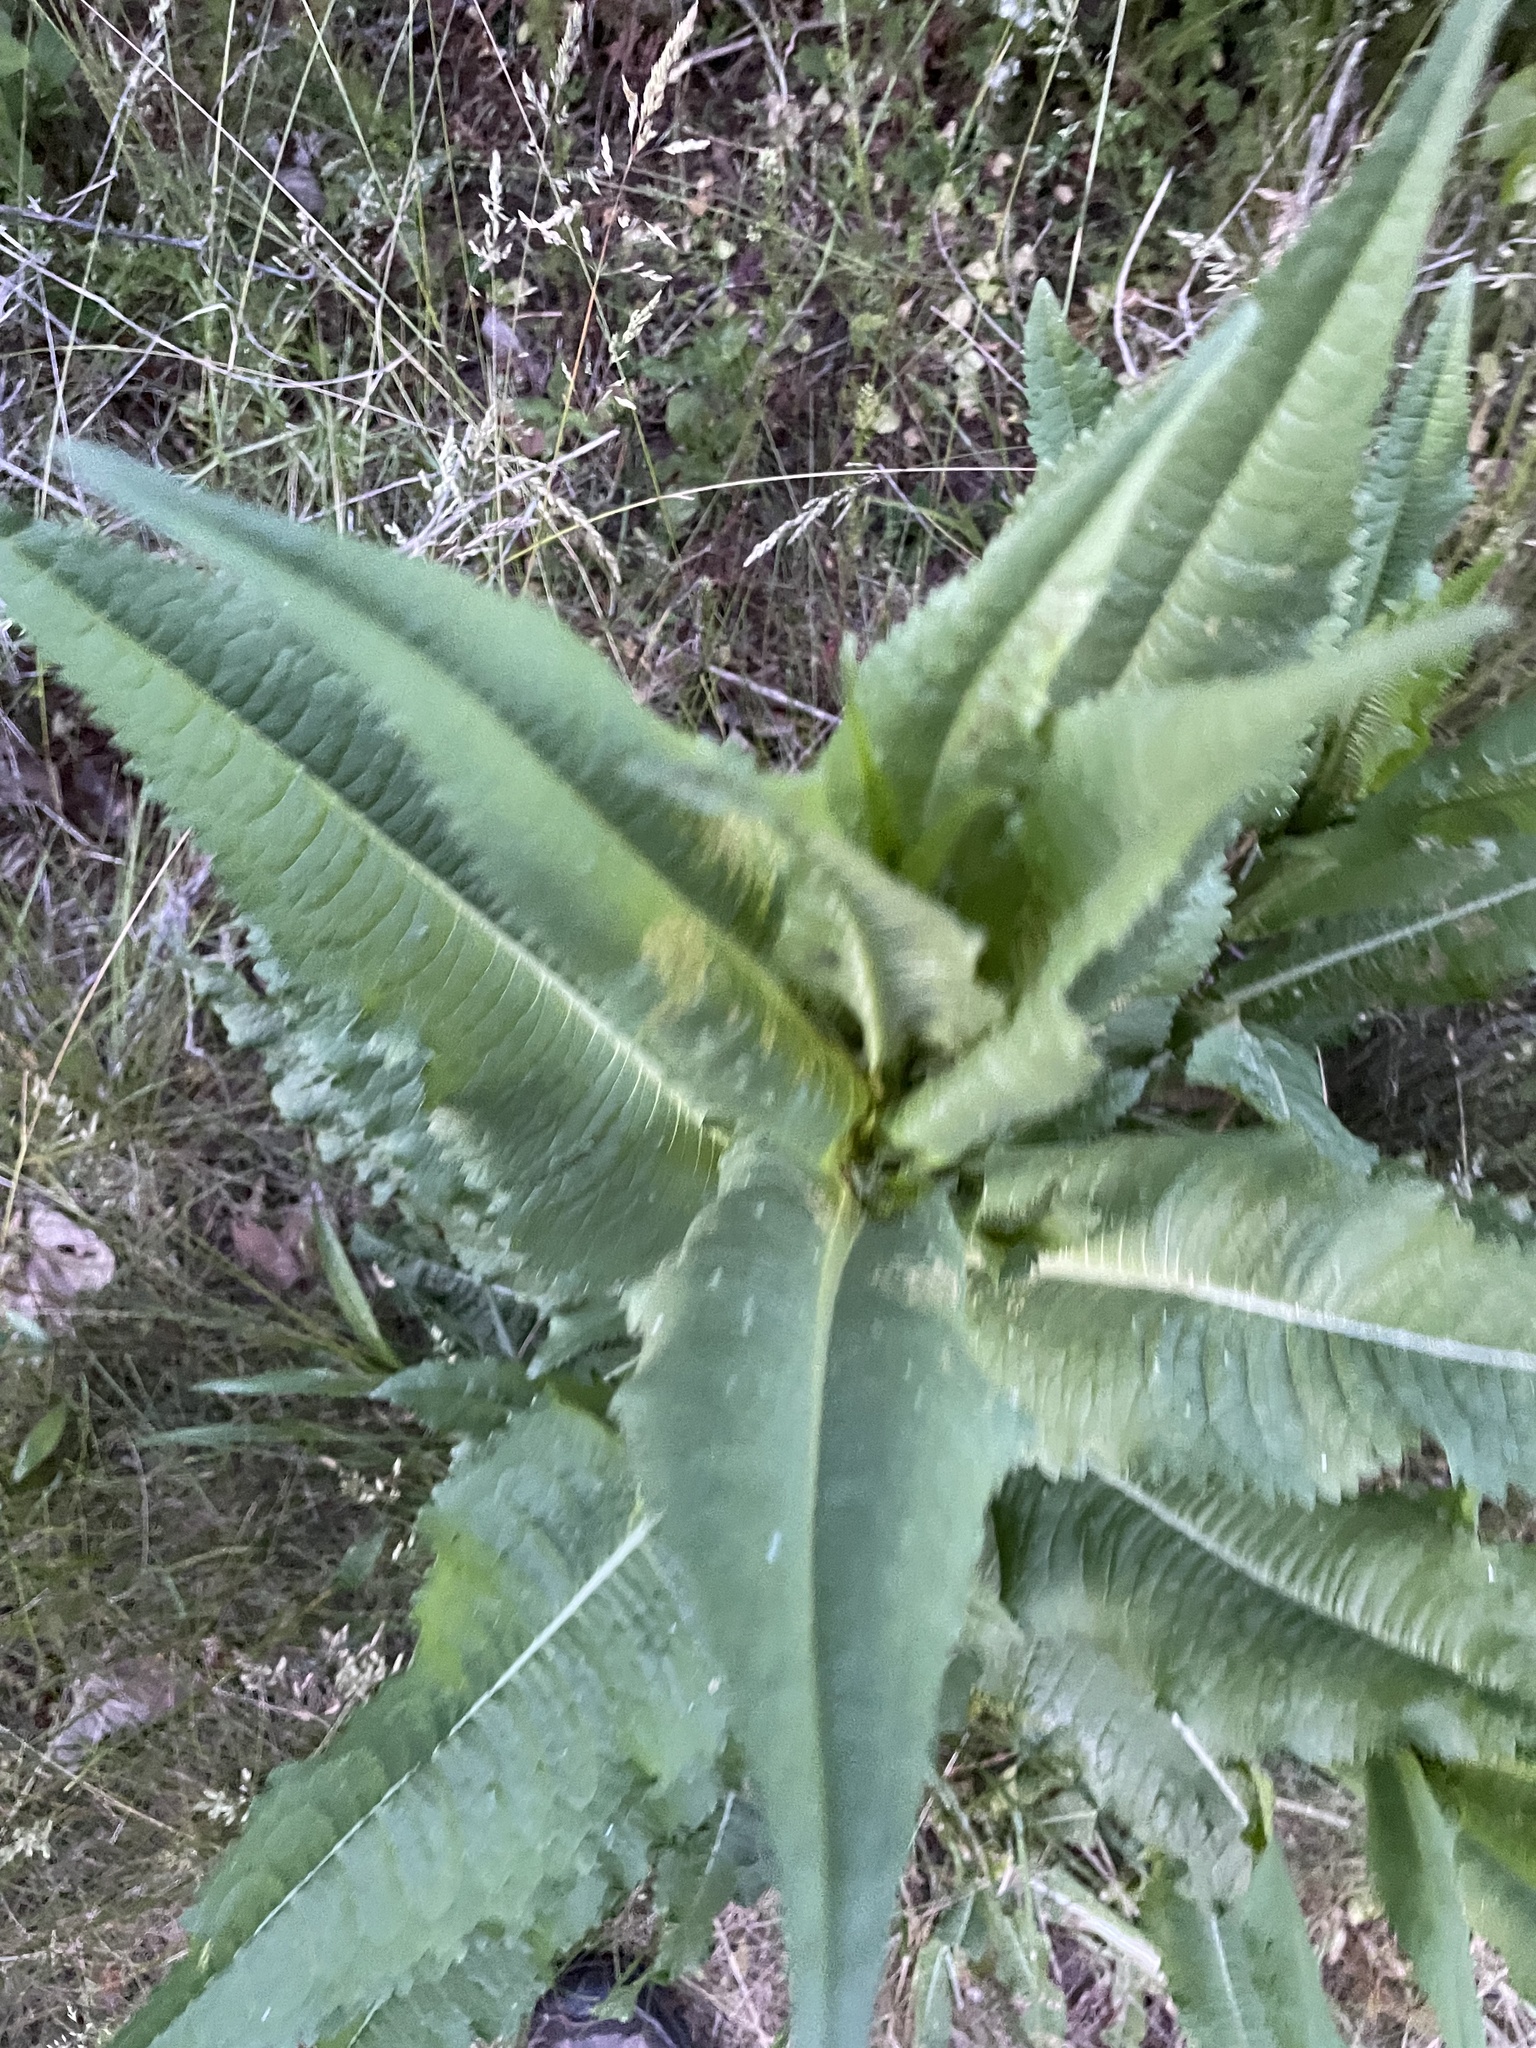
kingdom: Plantae
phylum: Tracheophyta
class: Magnoliopsida
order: Dipsacales
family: Caprifoliaceae
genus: Dipsacus
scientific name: Dipsacus fullonum
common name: Teasel
